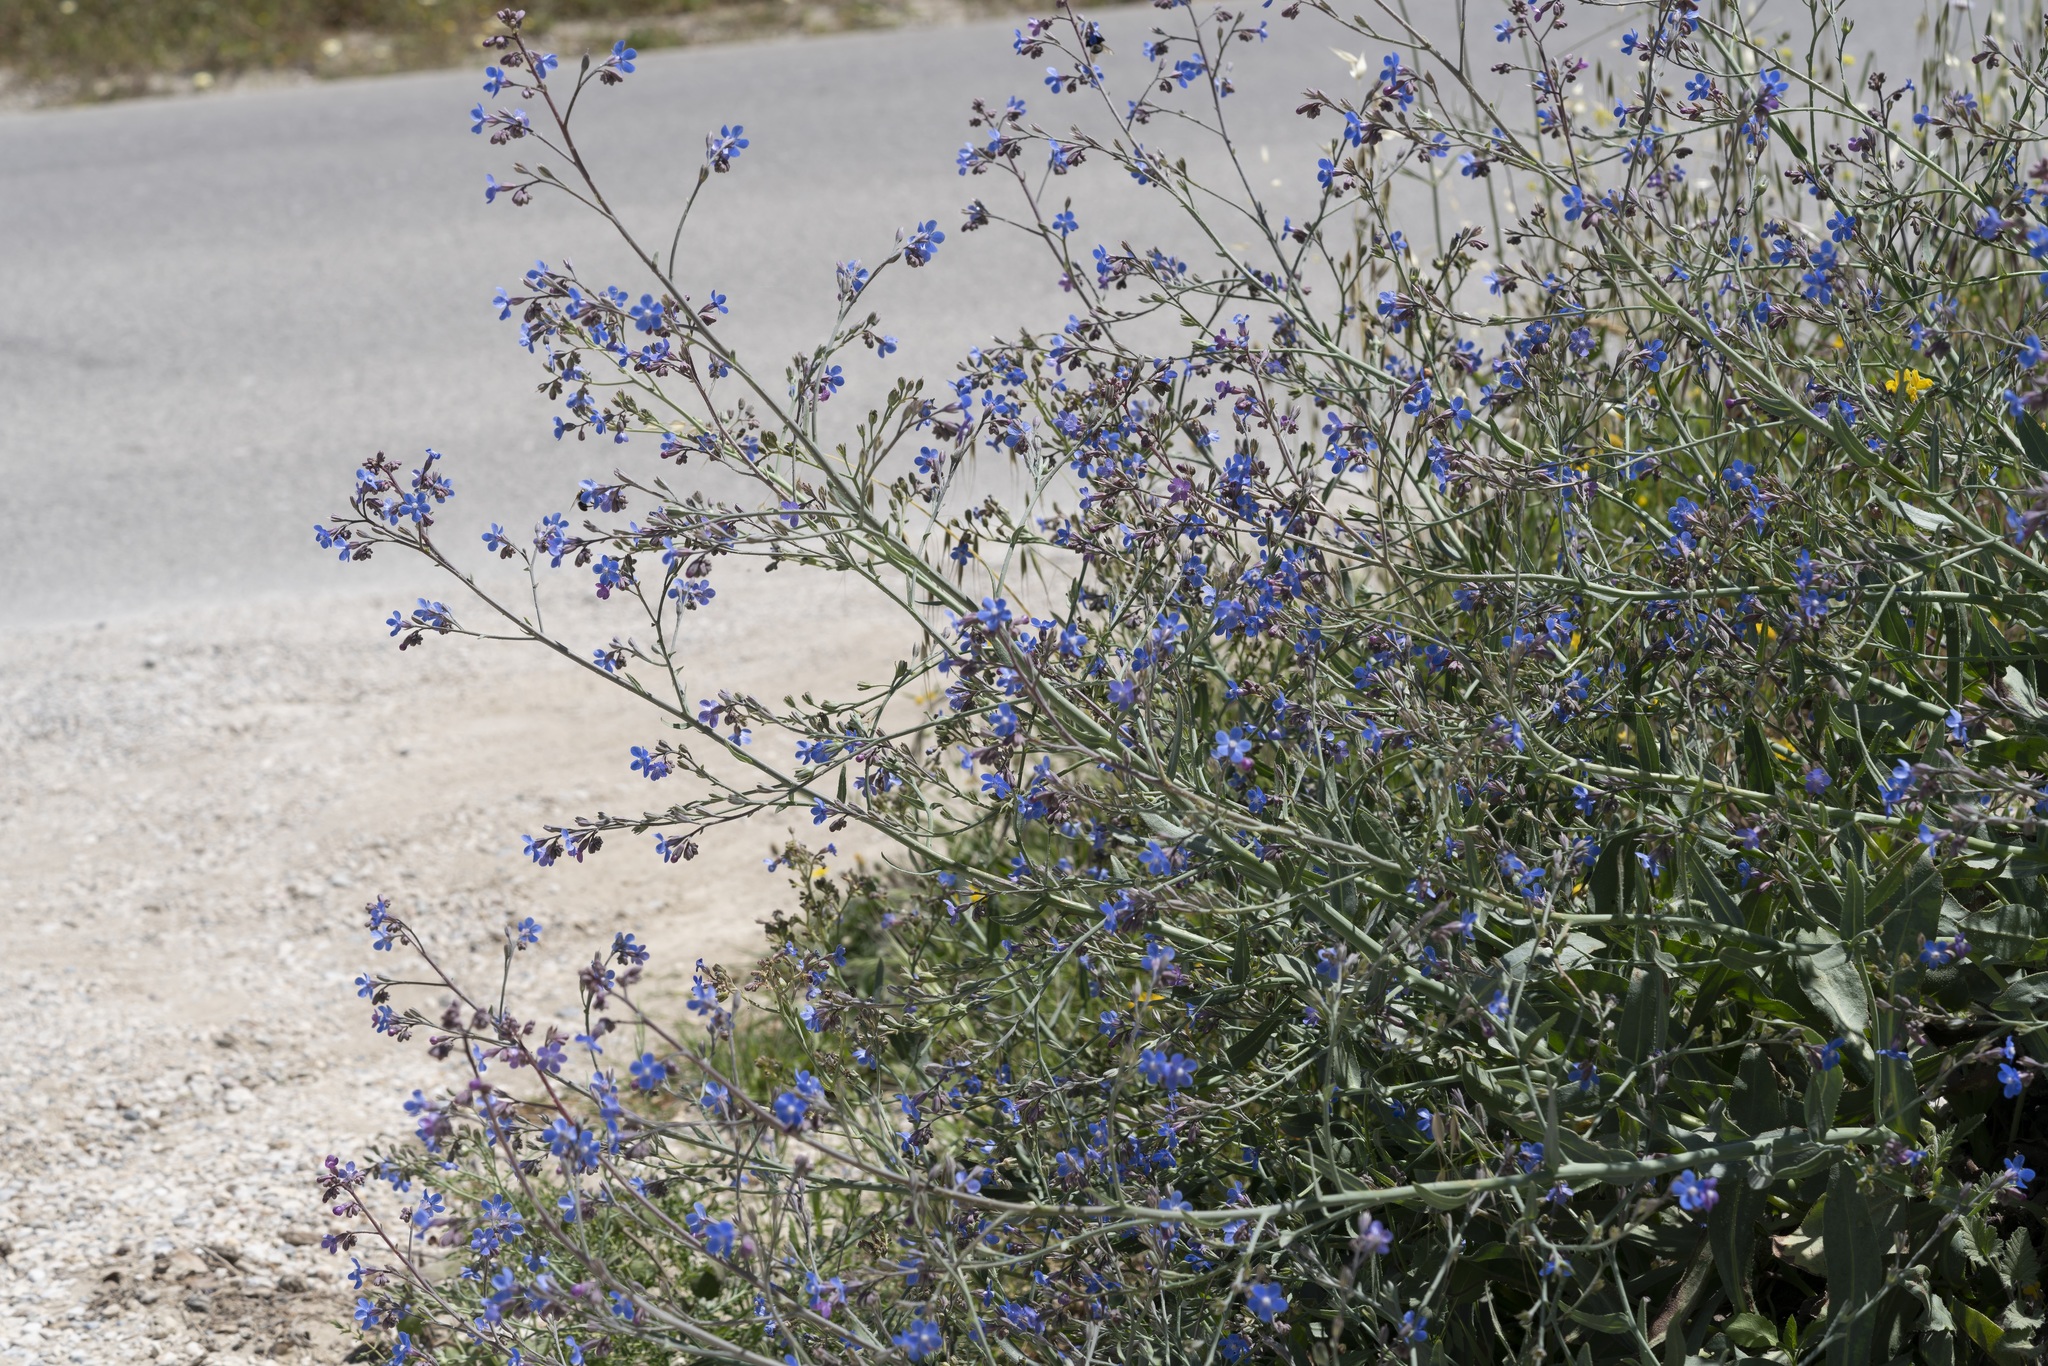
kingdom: Plantae
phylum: Tracheophyta
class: Magnoliopsida
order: Boraginales
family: Boraginaceae
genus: Anchusa
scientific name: Anchusa strigosa
